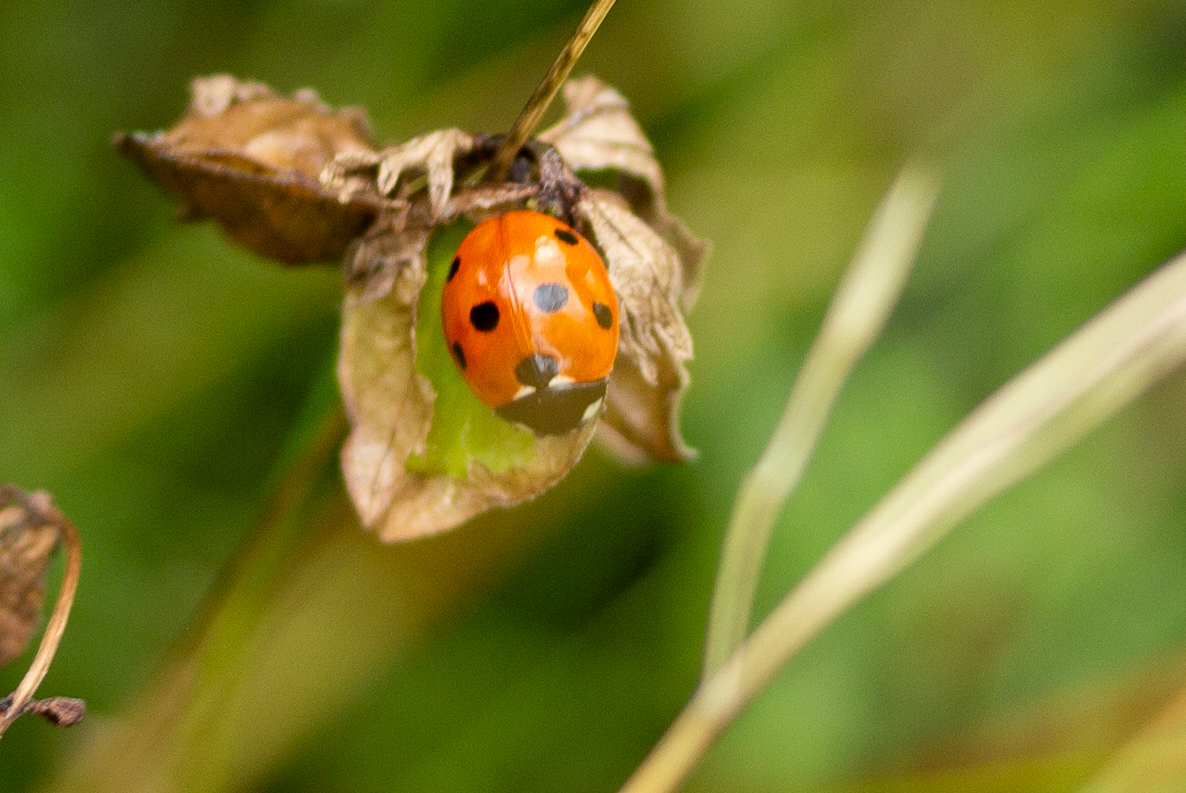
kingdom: Animalia
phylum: Arthropoda
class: Insecta
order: Coleoptera
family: Coccinellidae
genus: Coccinella
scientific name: Coccinella septempunctata
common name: Sevenspotted lady beetle
